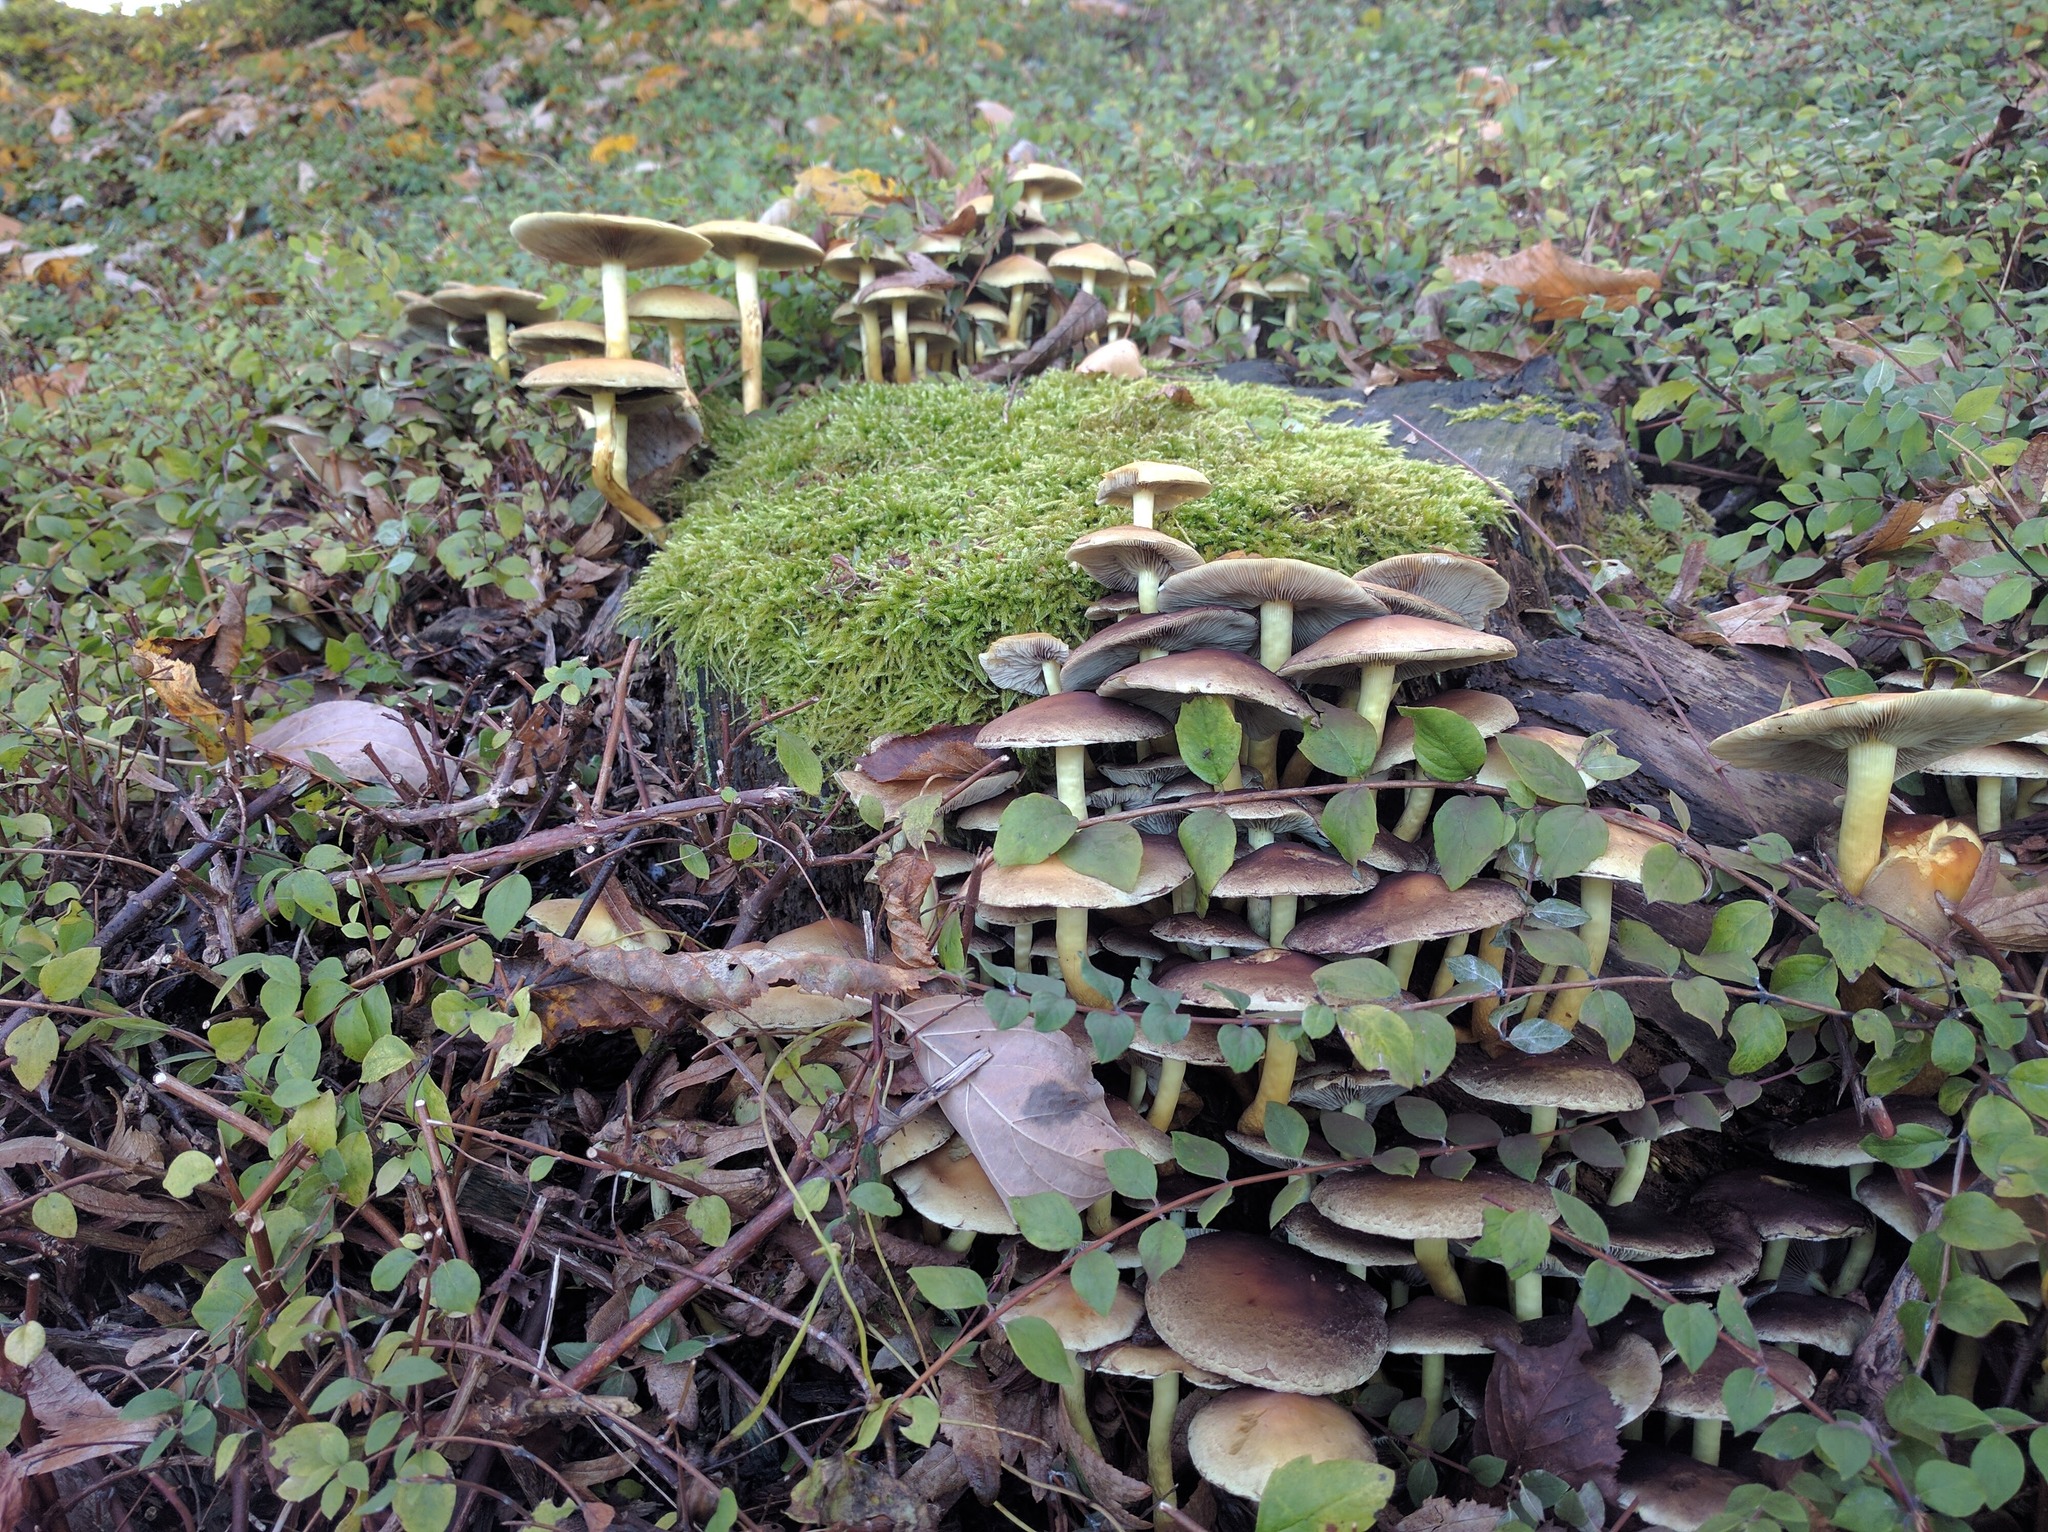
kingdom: Fungi
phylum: Basidiomycota
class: Agaricomycetes
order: Agaricales
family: Strophariaceae
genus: Hypholoma
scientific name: Hypholoma fasciculare
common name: Sulphur tuft
